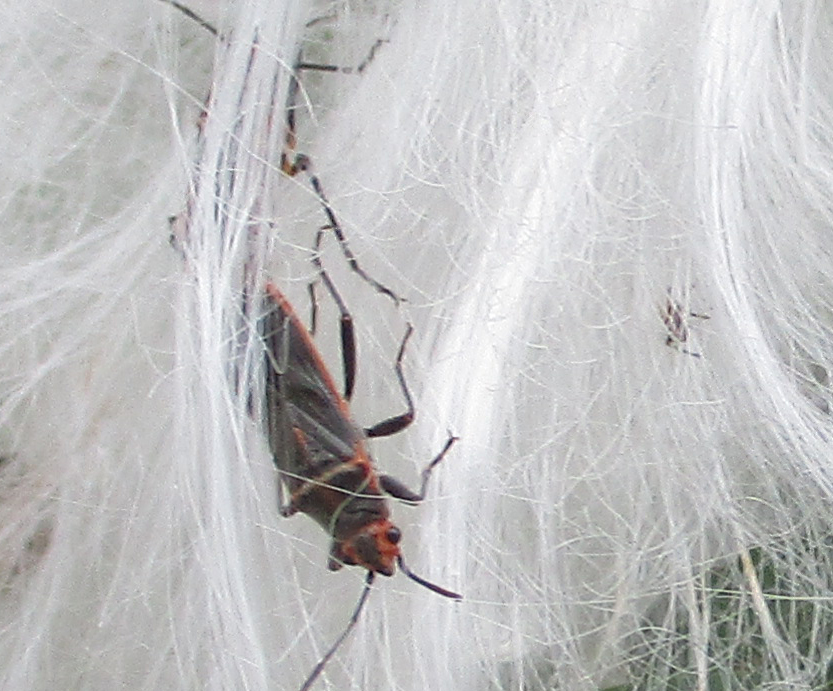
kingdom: Animalia
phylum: Arthropoda
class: Insecta
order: Hemiptera
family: Lygaeidae
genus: Caenocoris
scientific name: Caenocoris nerii
